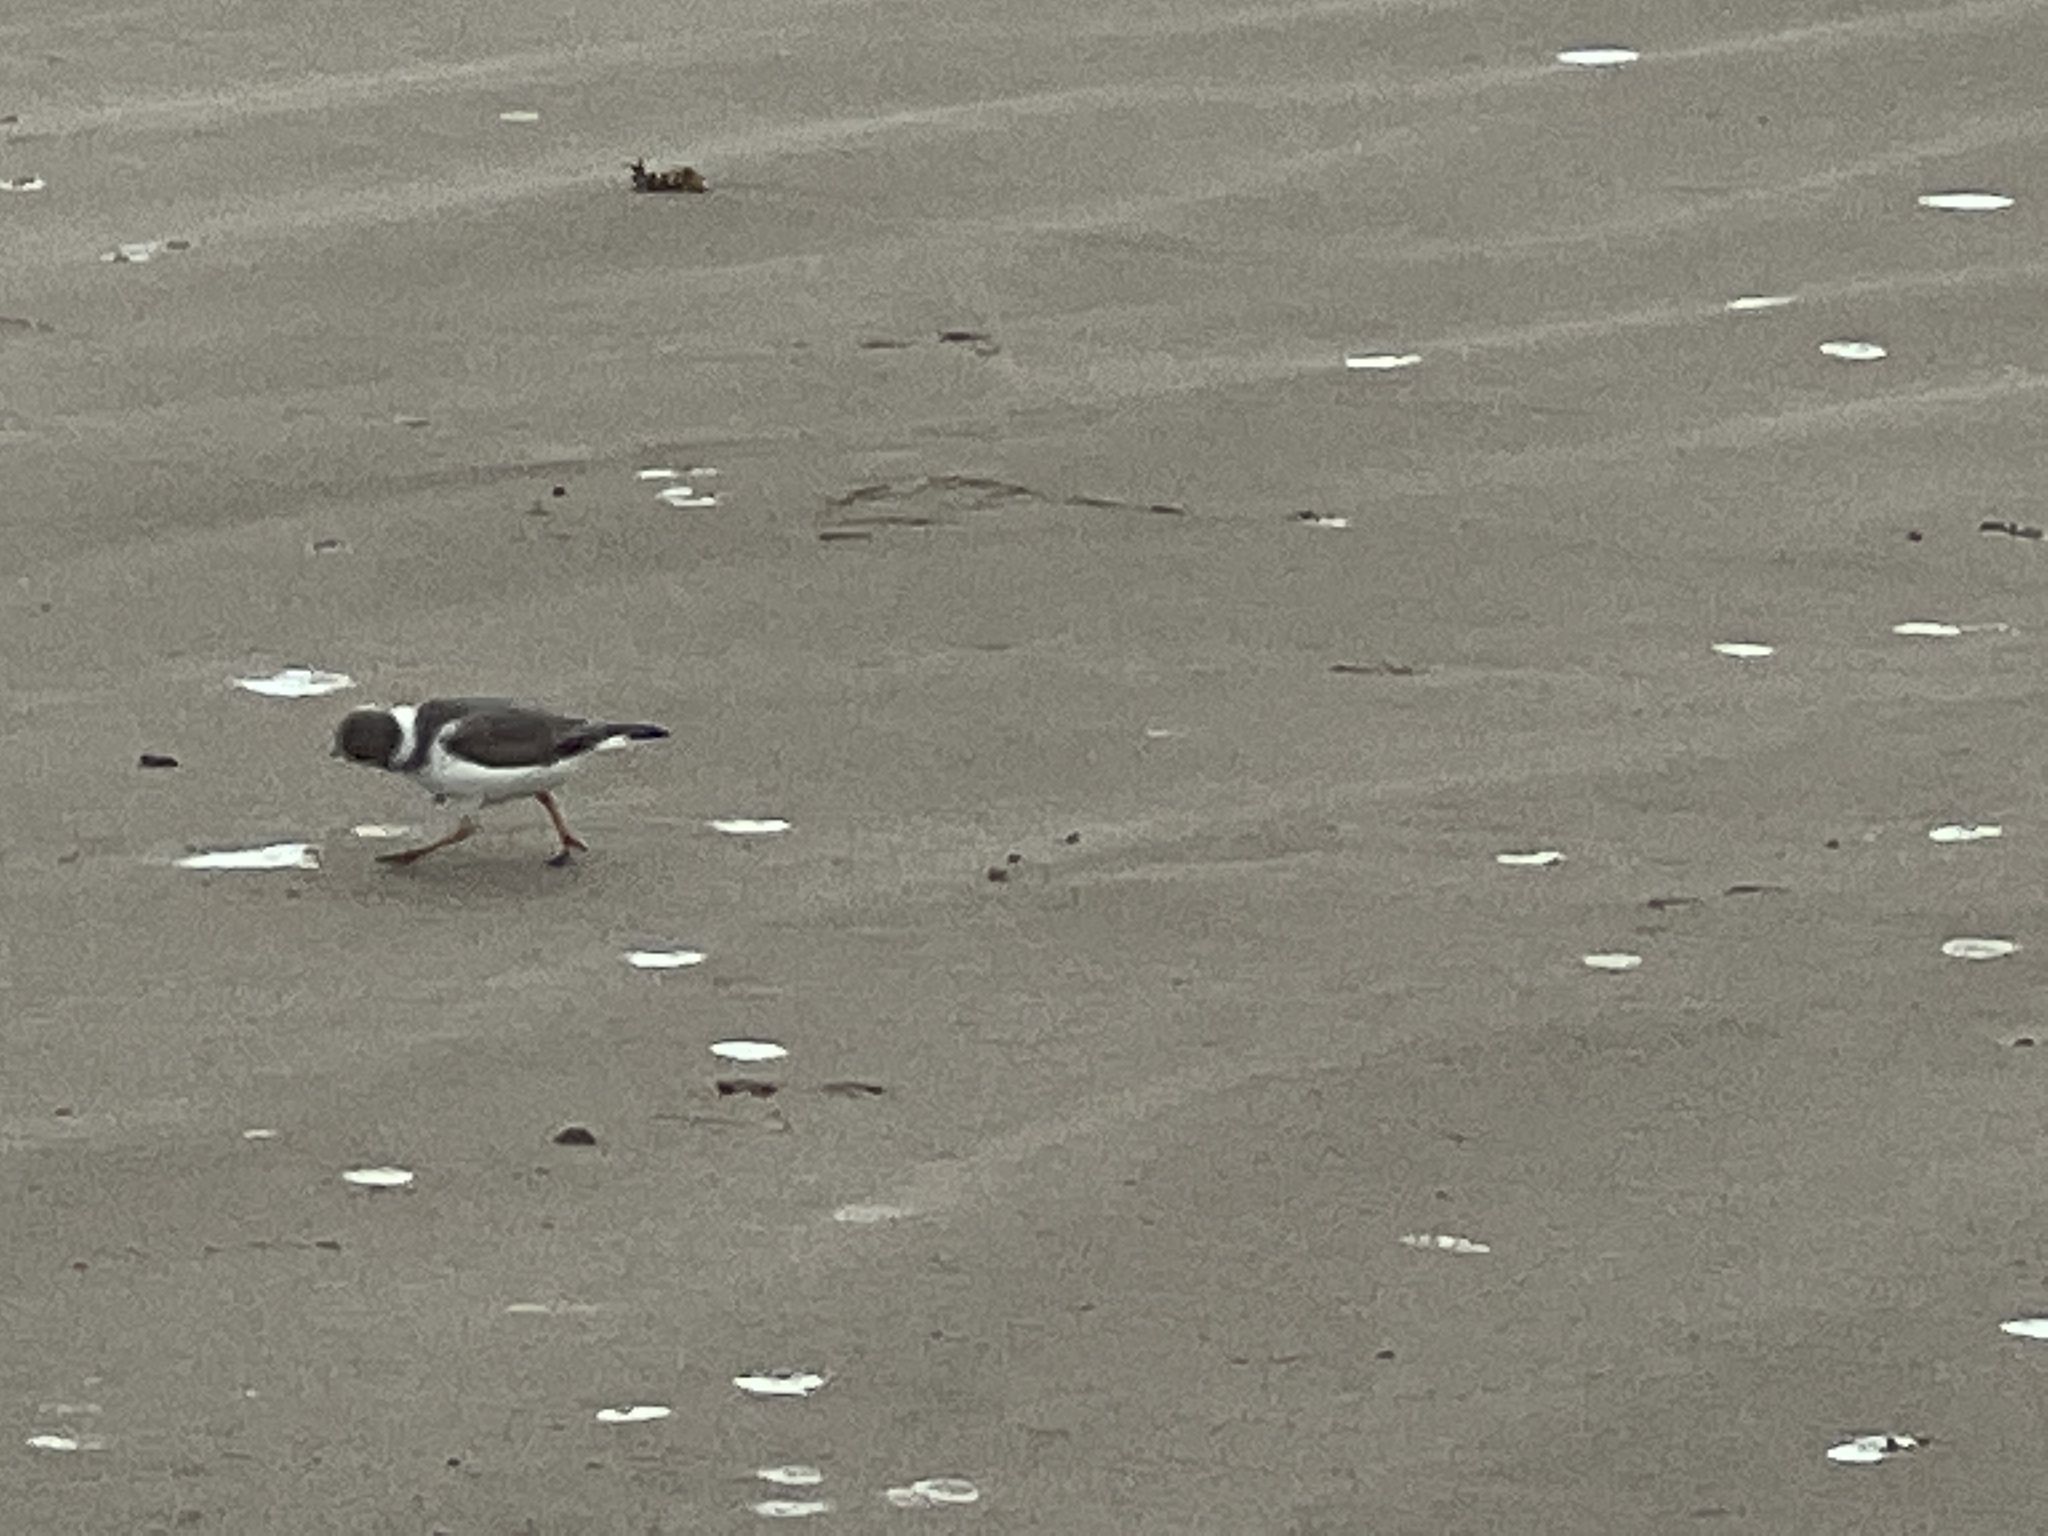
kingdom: Animalia
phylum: Chordata
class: Aves
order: Charadriiformes
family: Charadriidae
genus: Charadrius
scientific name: Charadrius melodus
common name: Piping plover
